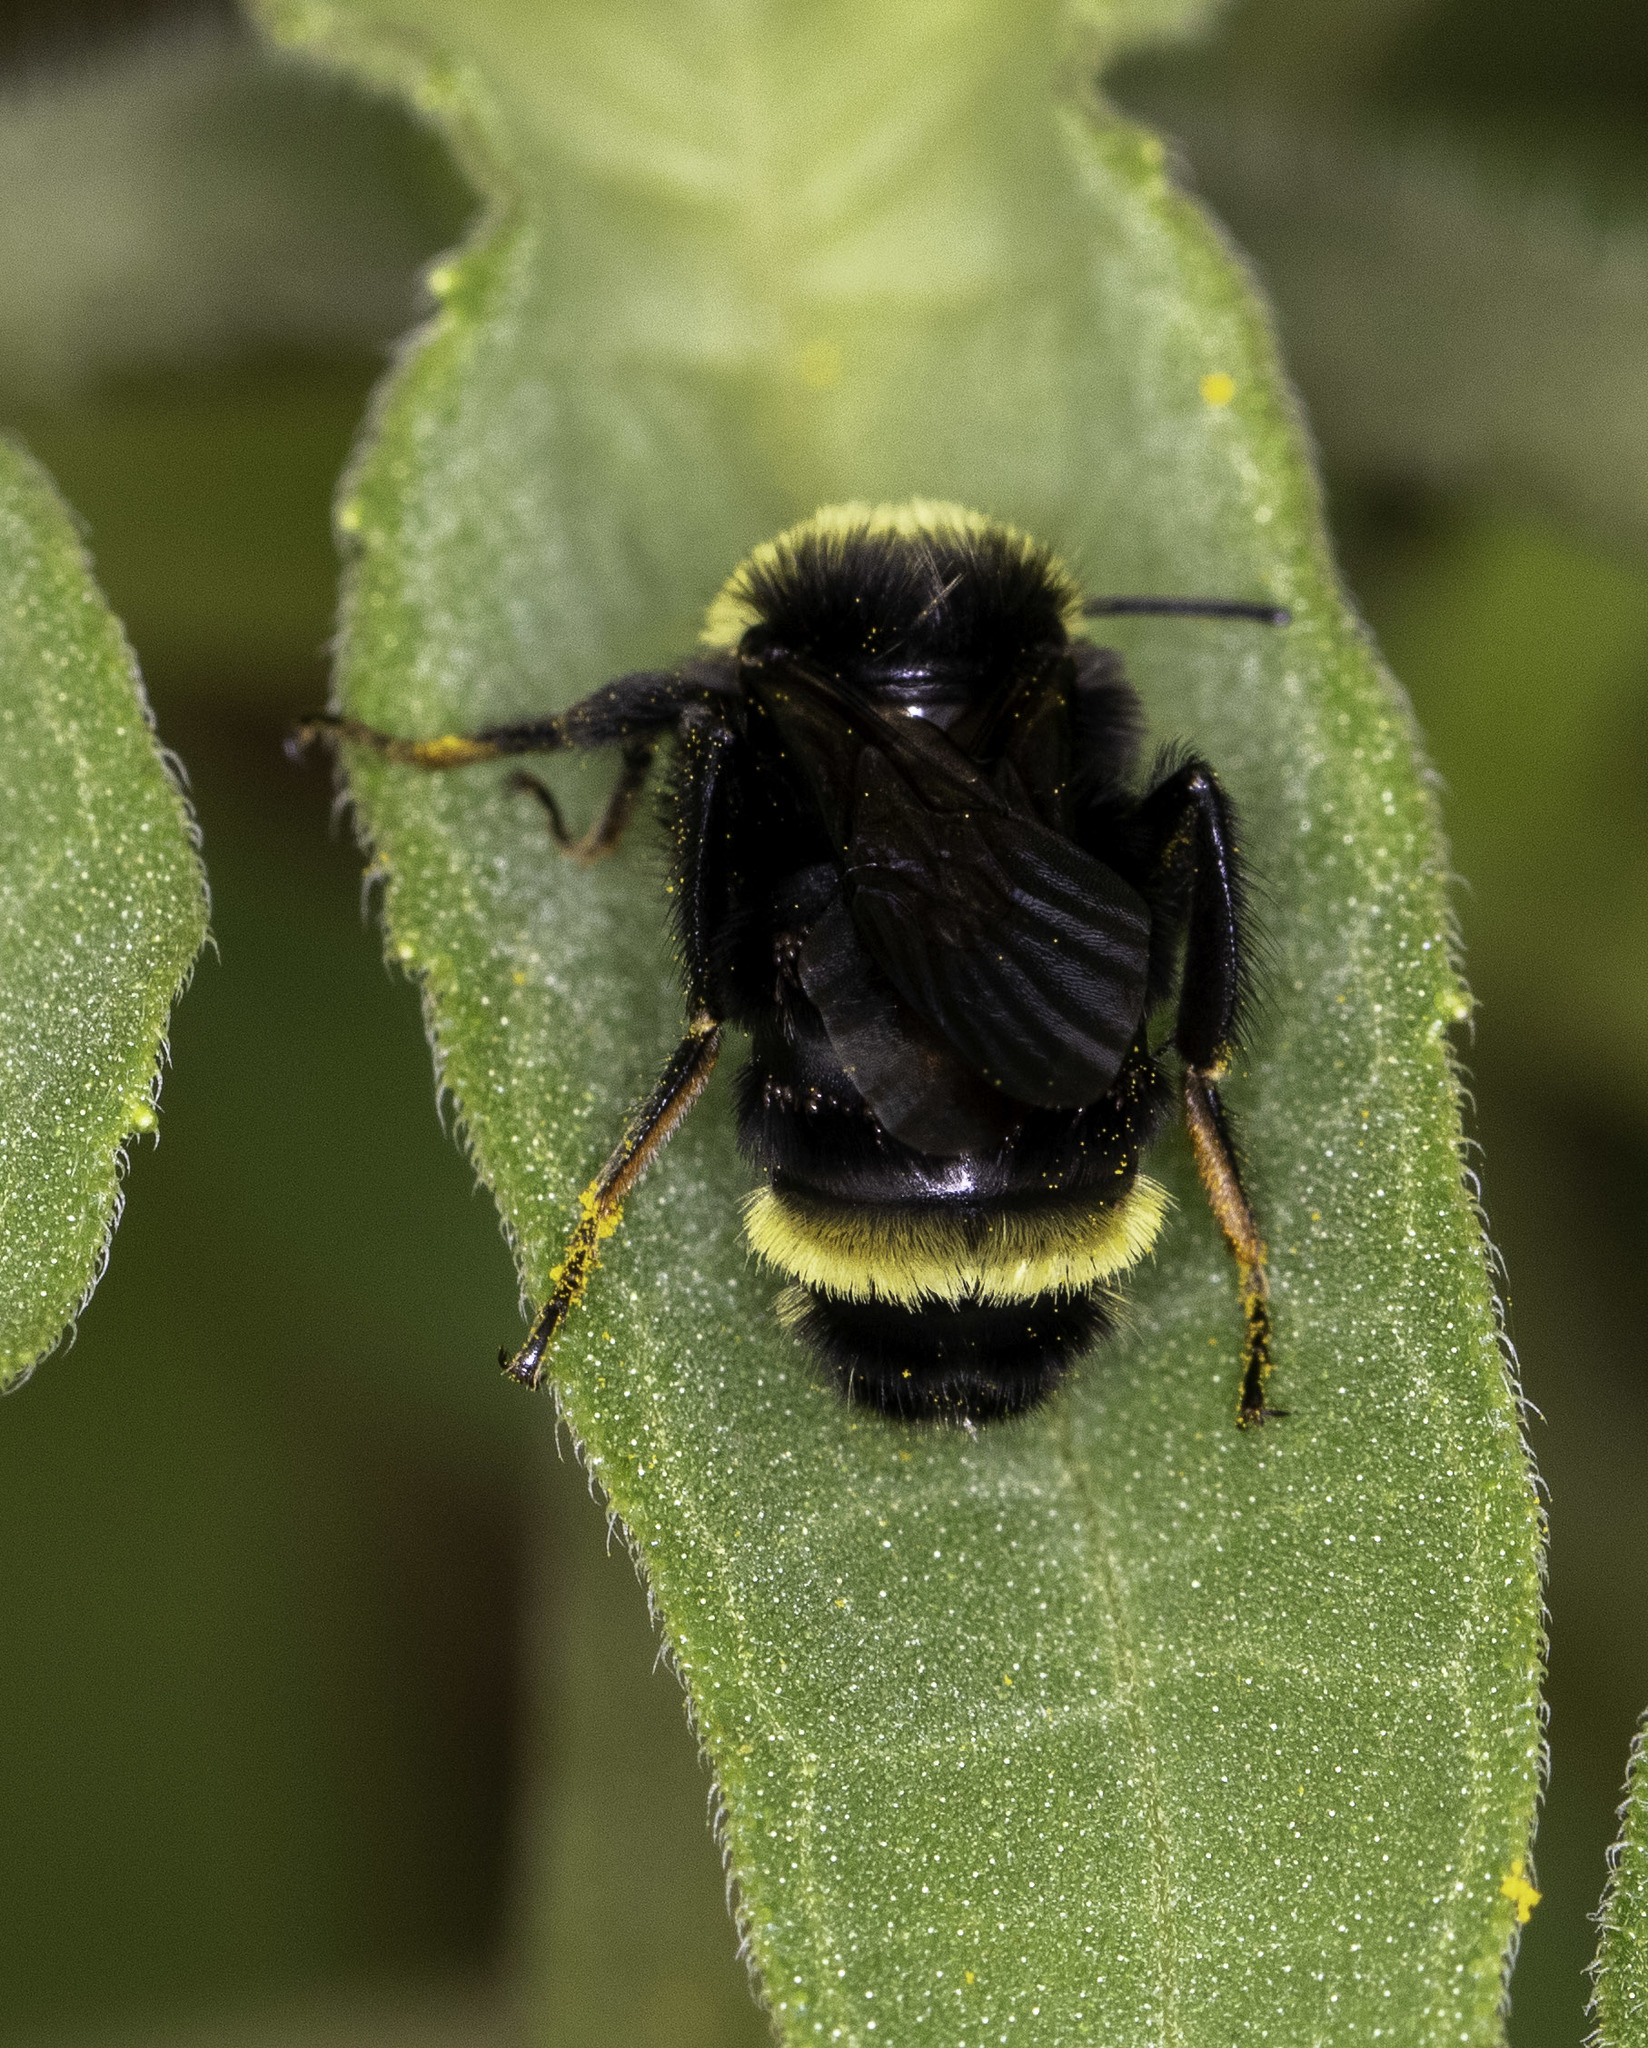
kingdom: Animalia
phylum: Arthropoda
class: Insecta
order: Hymenoptera
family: Apidae
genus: Bombus
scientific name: Bombus vosnesenskii
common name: Vosnesensky bumble bee
